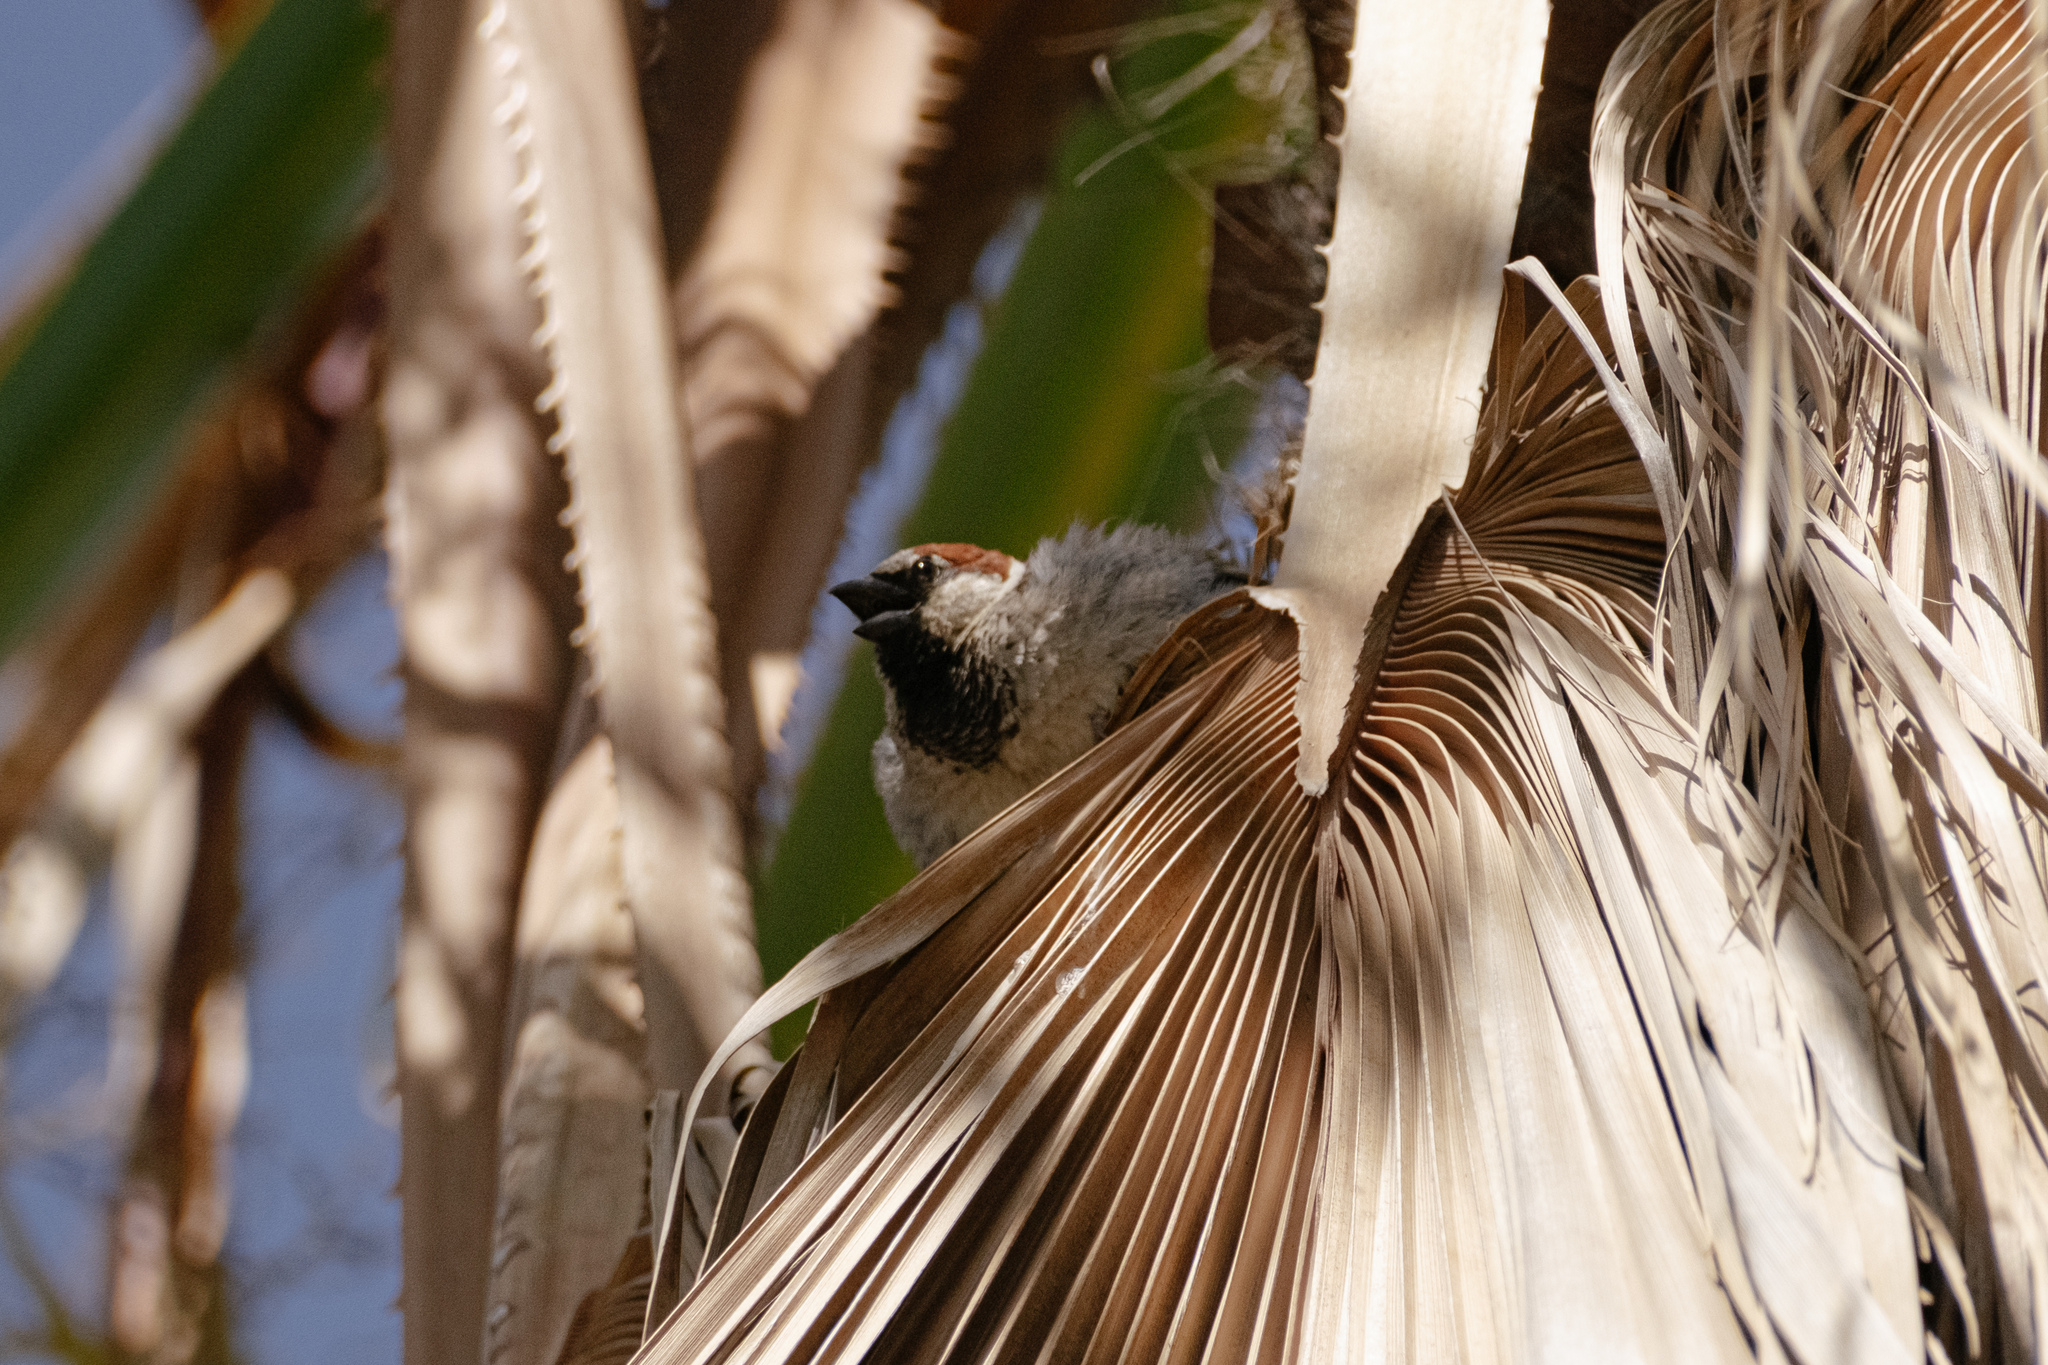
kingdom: Animalia
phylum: Chordata
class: Aves
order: Passeriformes
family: Passeridae
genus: Passer
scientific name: Passer domesticus
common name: House sparrow
